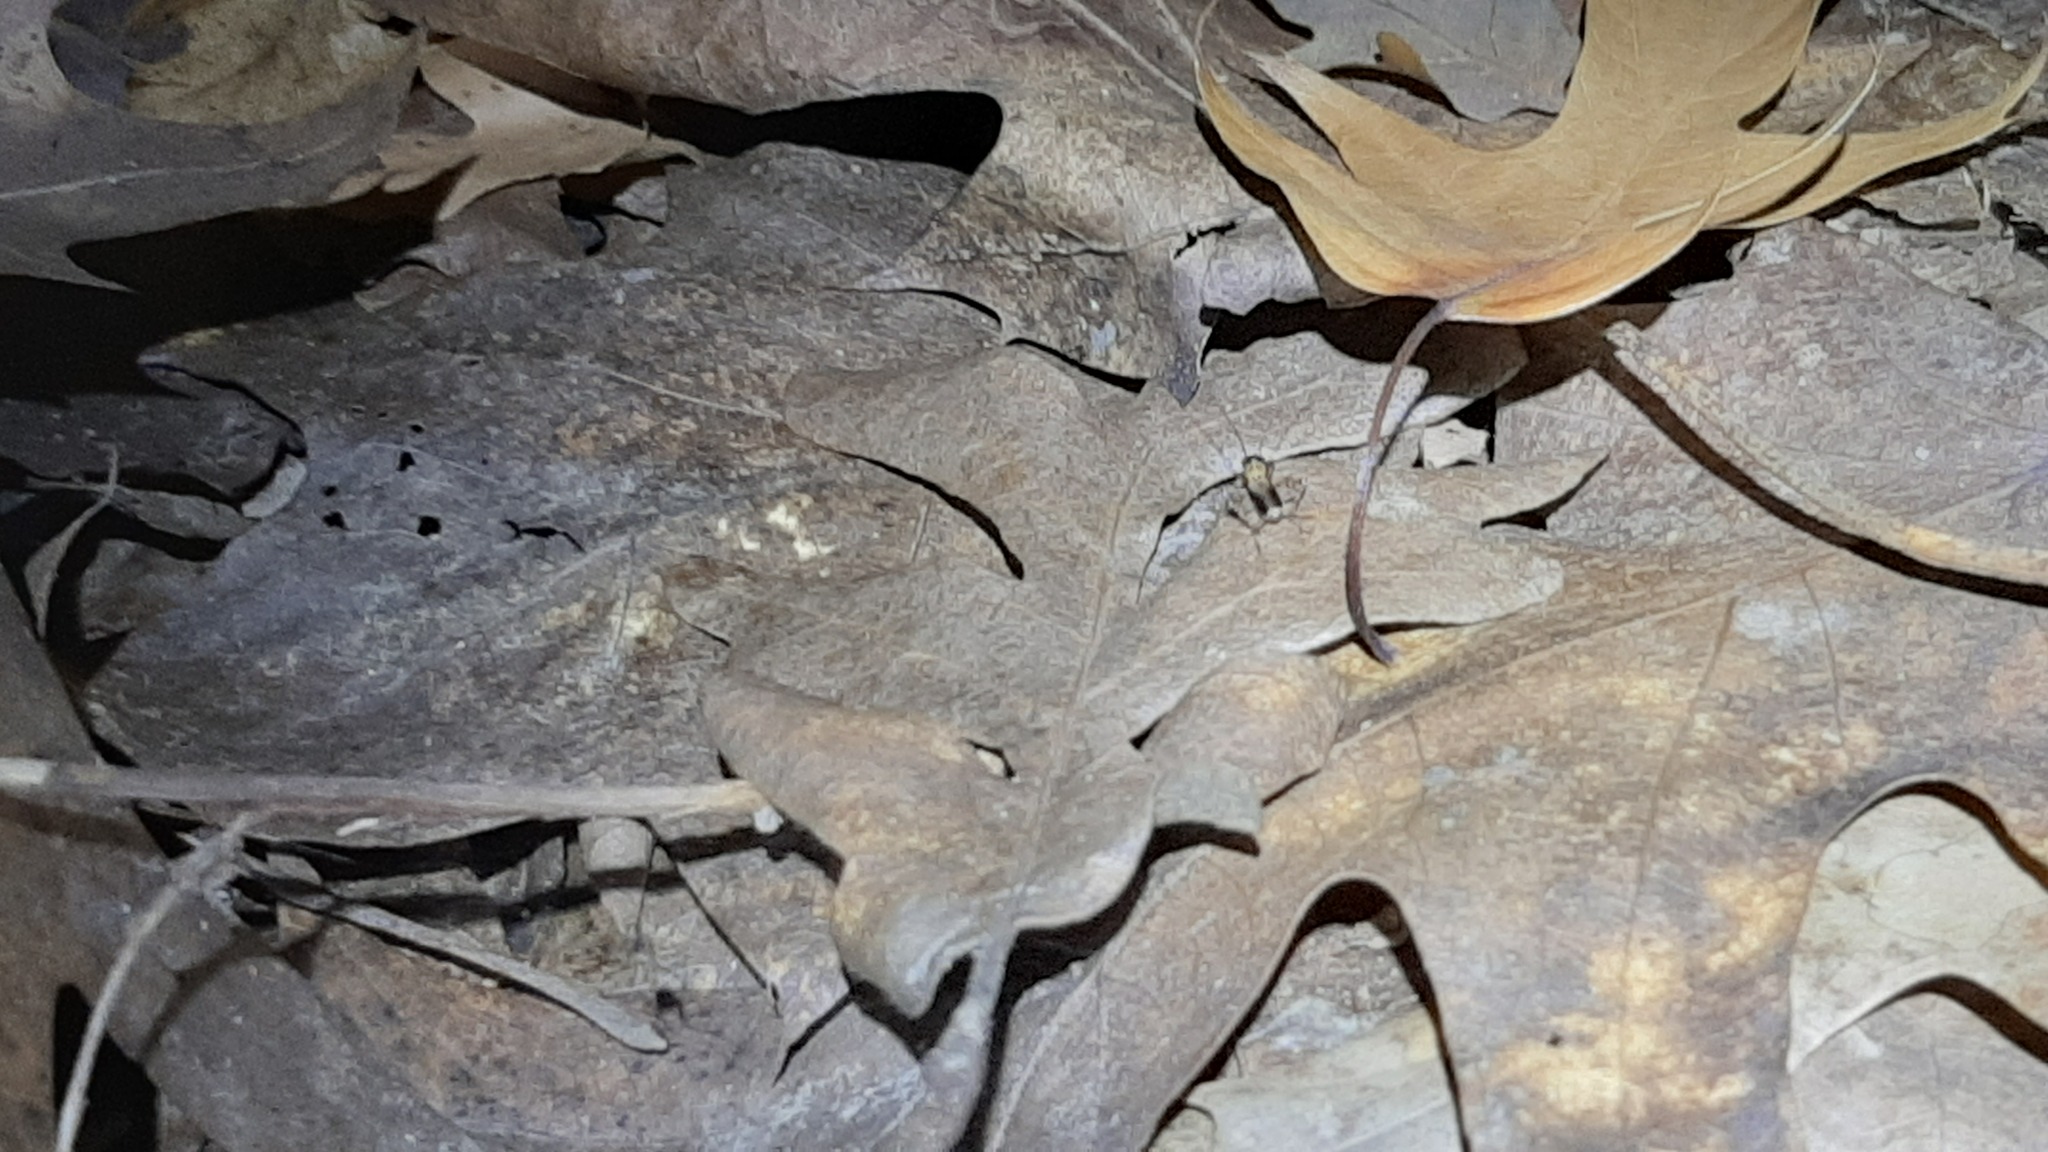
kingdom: Animalia
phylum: Arthropoda
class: Insecta
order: Orthoptera
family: Trigonidiidae
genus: Nemobius
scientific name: Nemobius sylvestris
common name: Wood-cricket
